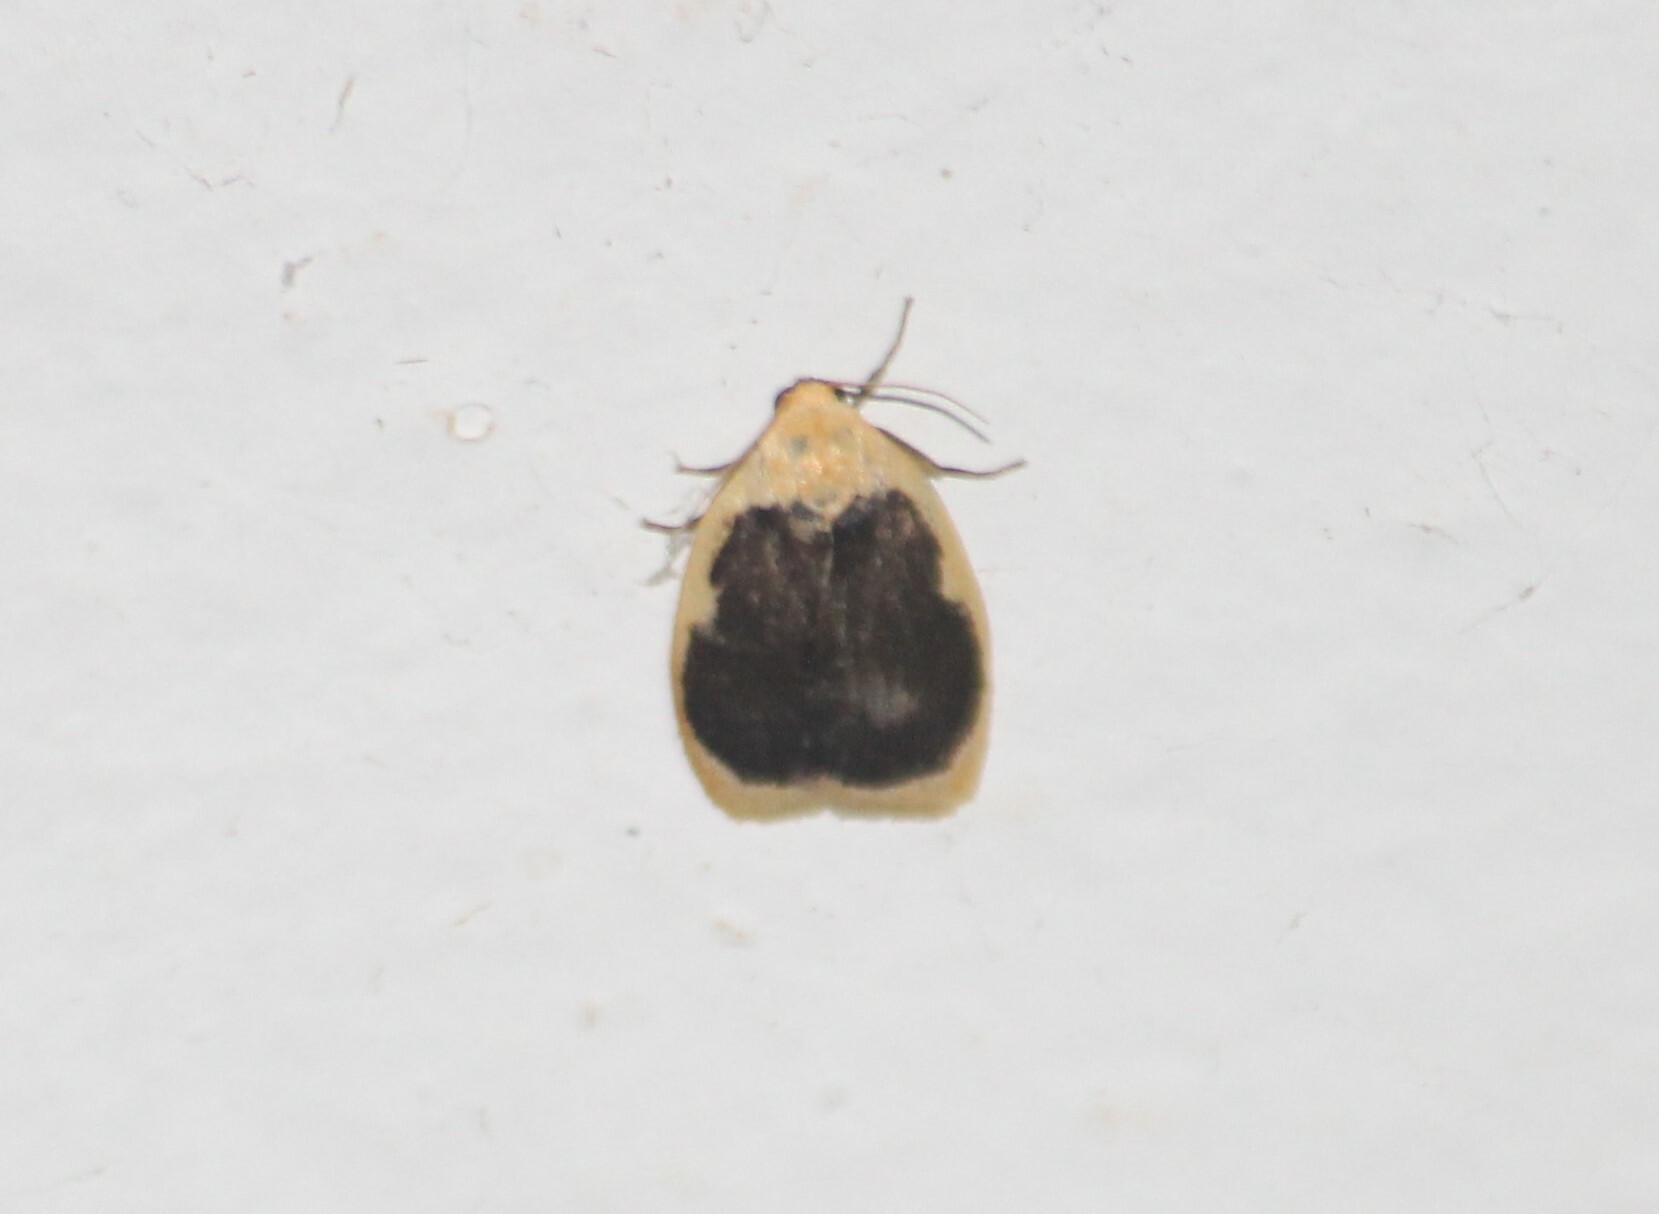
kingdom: Animalia
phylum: Arthropoda
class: Insecta
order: Lepidoptera
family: Erebidae
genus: Pseudoblabes
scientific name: Pseudoblabes oophora
